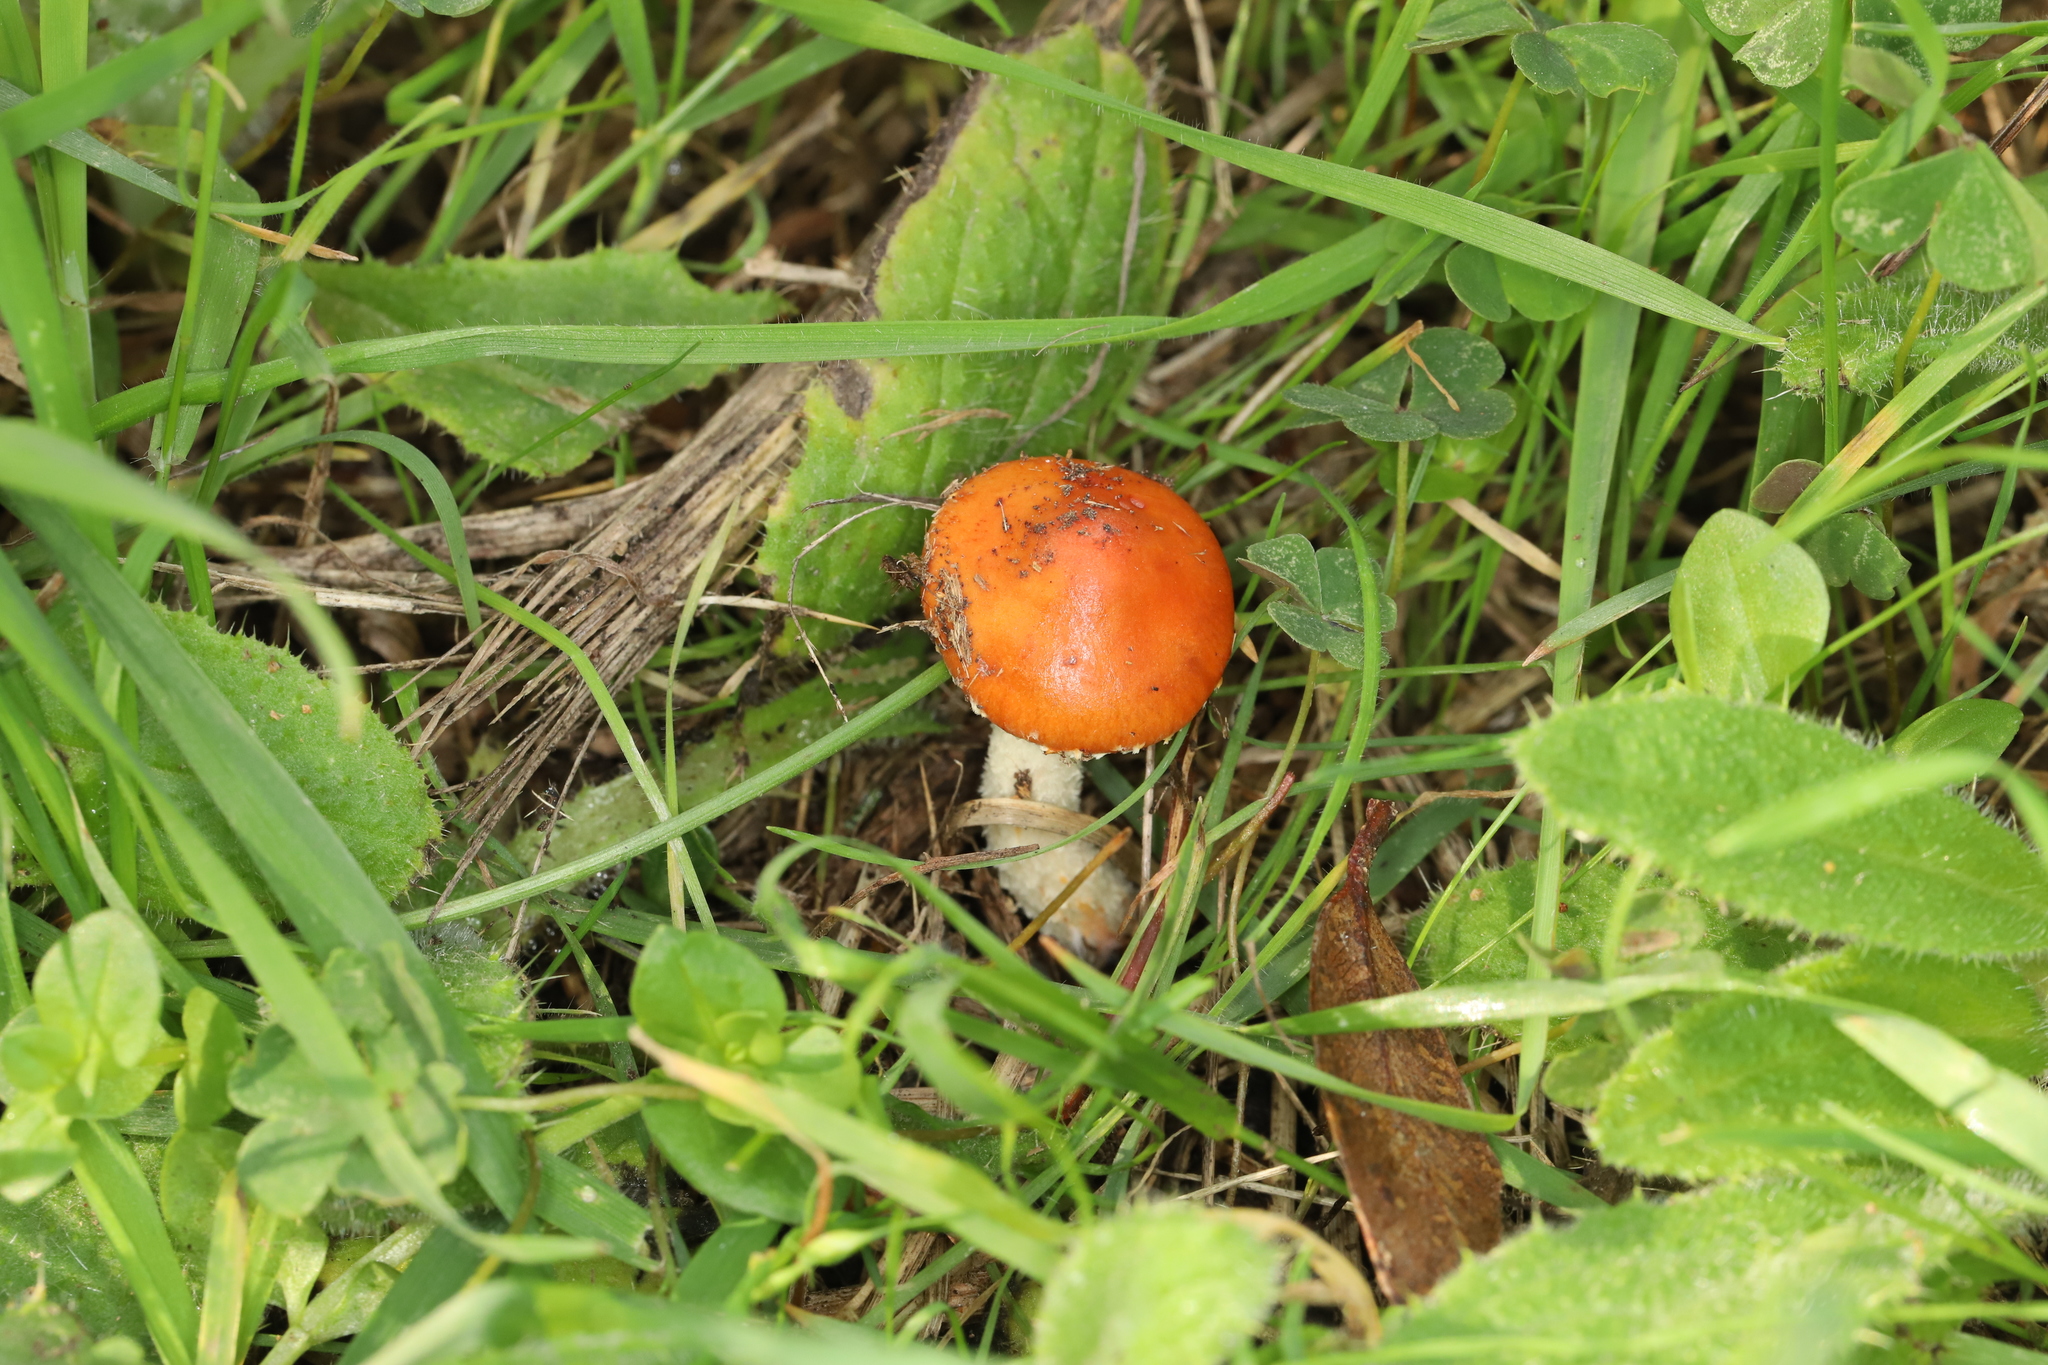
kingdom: Fungi
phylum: Basidiomycota
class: Agaricomycetes
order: Agaricales
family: Strophariaceae
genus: Leratiomyces
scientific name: Leratiomyces ceres
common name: Redlead roundhead
